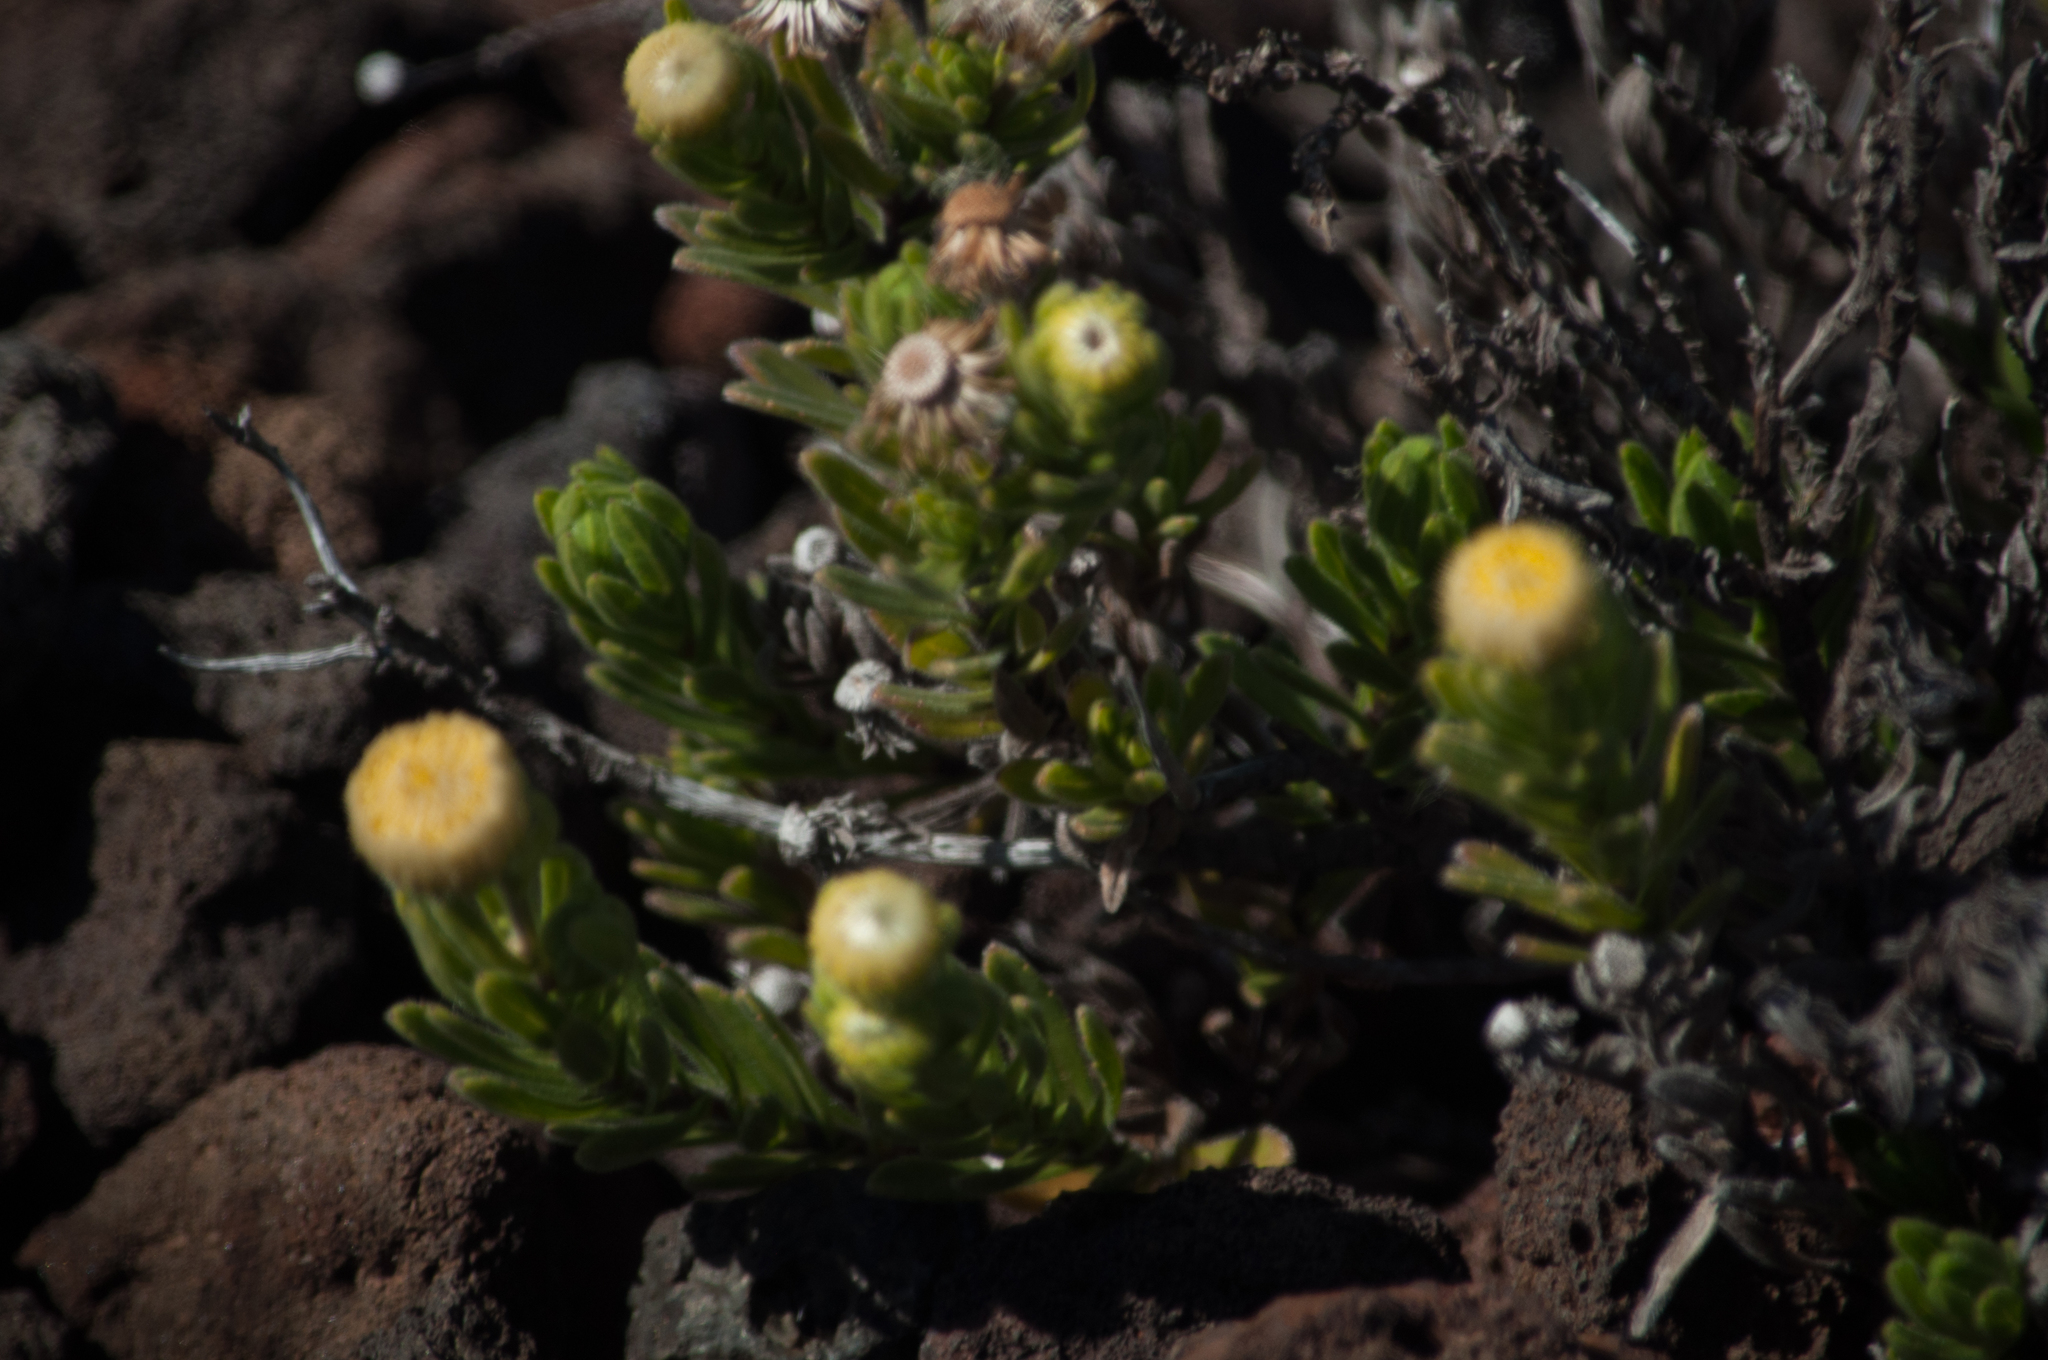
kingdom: Plantae
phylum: Tracheophyta
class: Magnoliopsida
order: Asterales
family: Asteraceae
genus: Psiadia
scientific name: Psiadia callocephala
